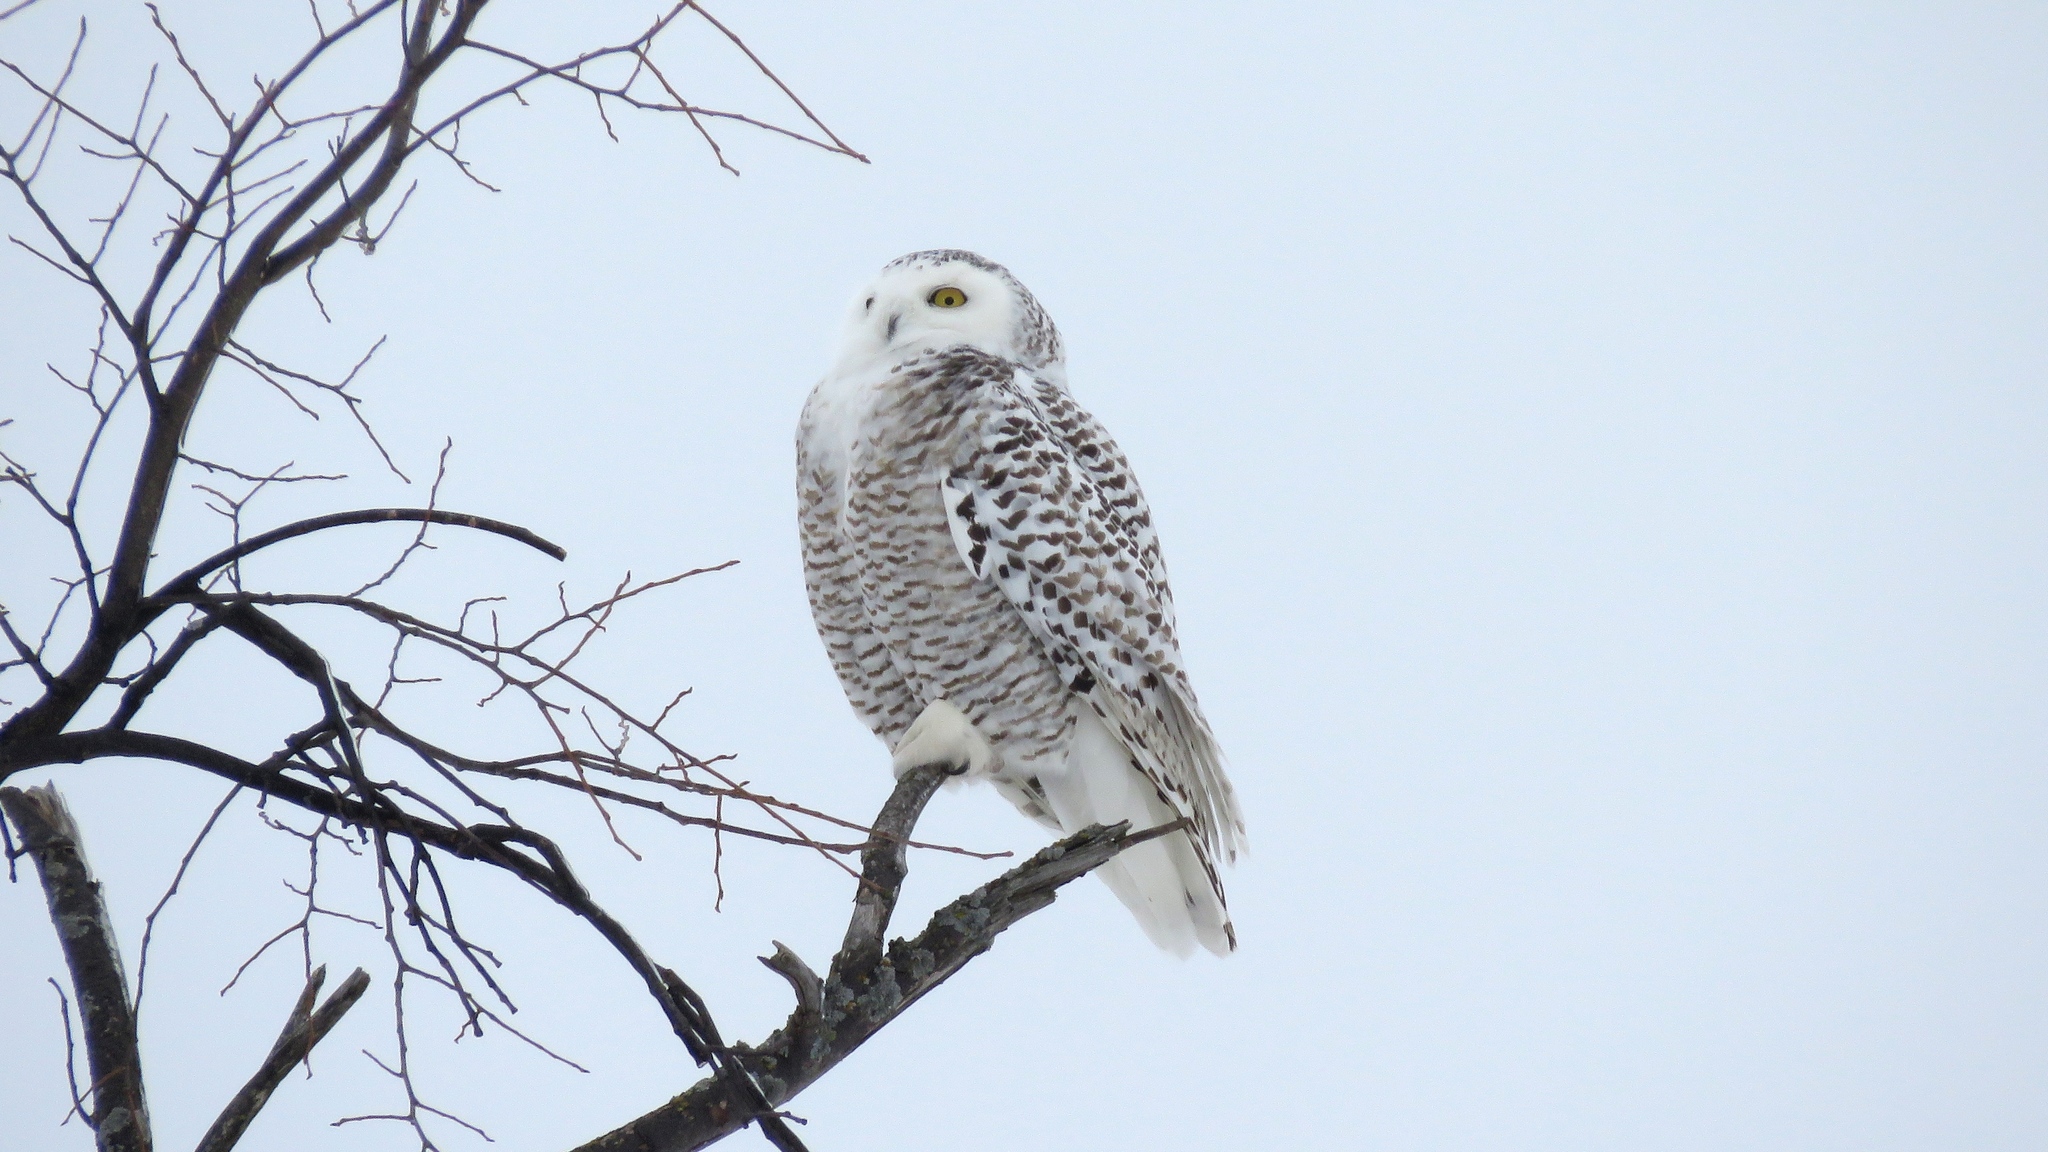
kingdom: Animalia
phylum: Chordata
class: Aves
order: Strigiformes
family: Strigidae
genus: Bubo
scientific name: Bubo scandiacus
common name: Snowy owl
